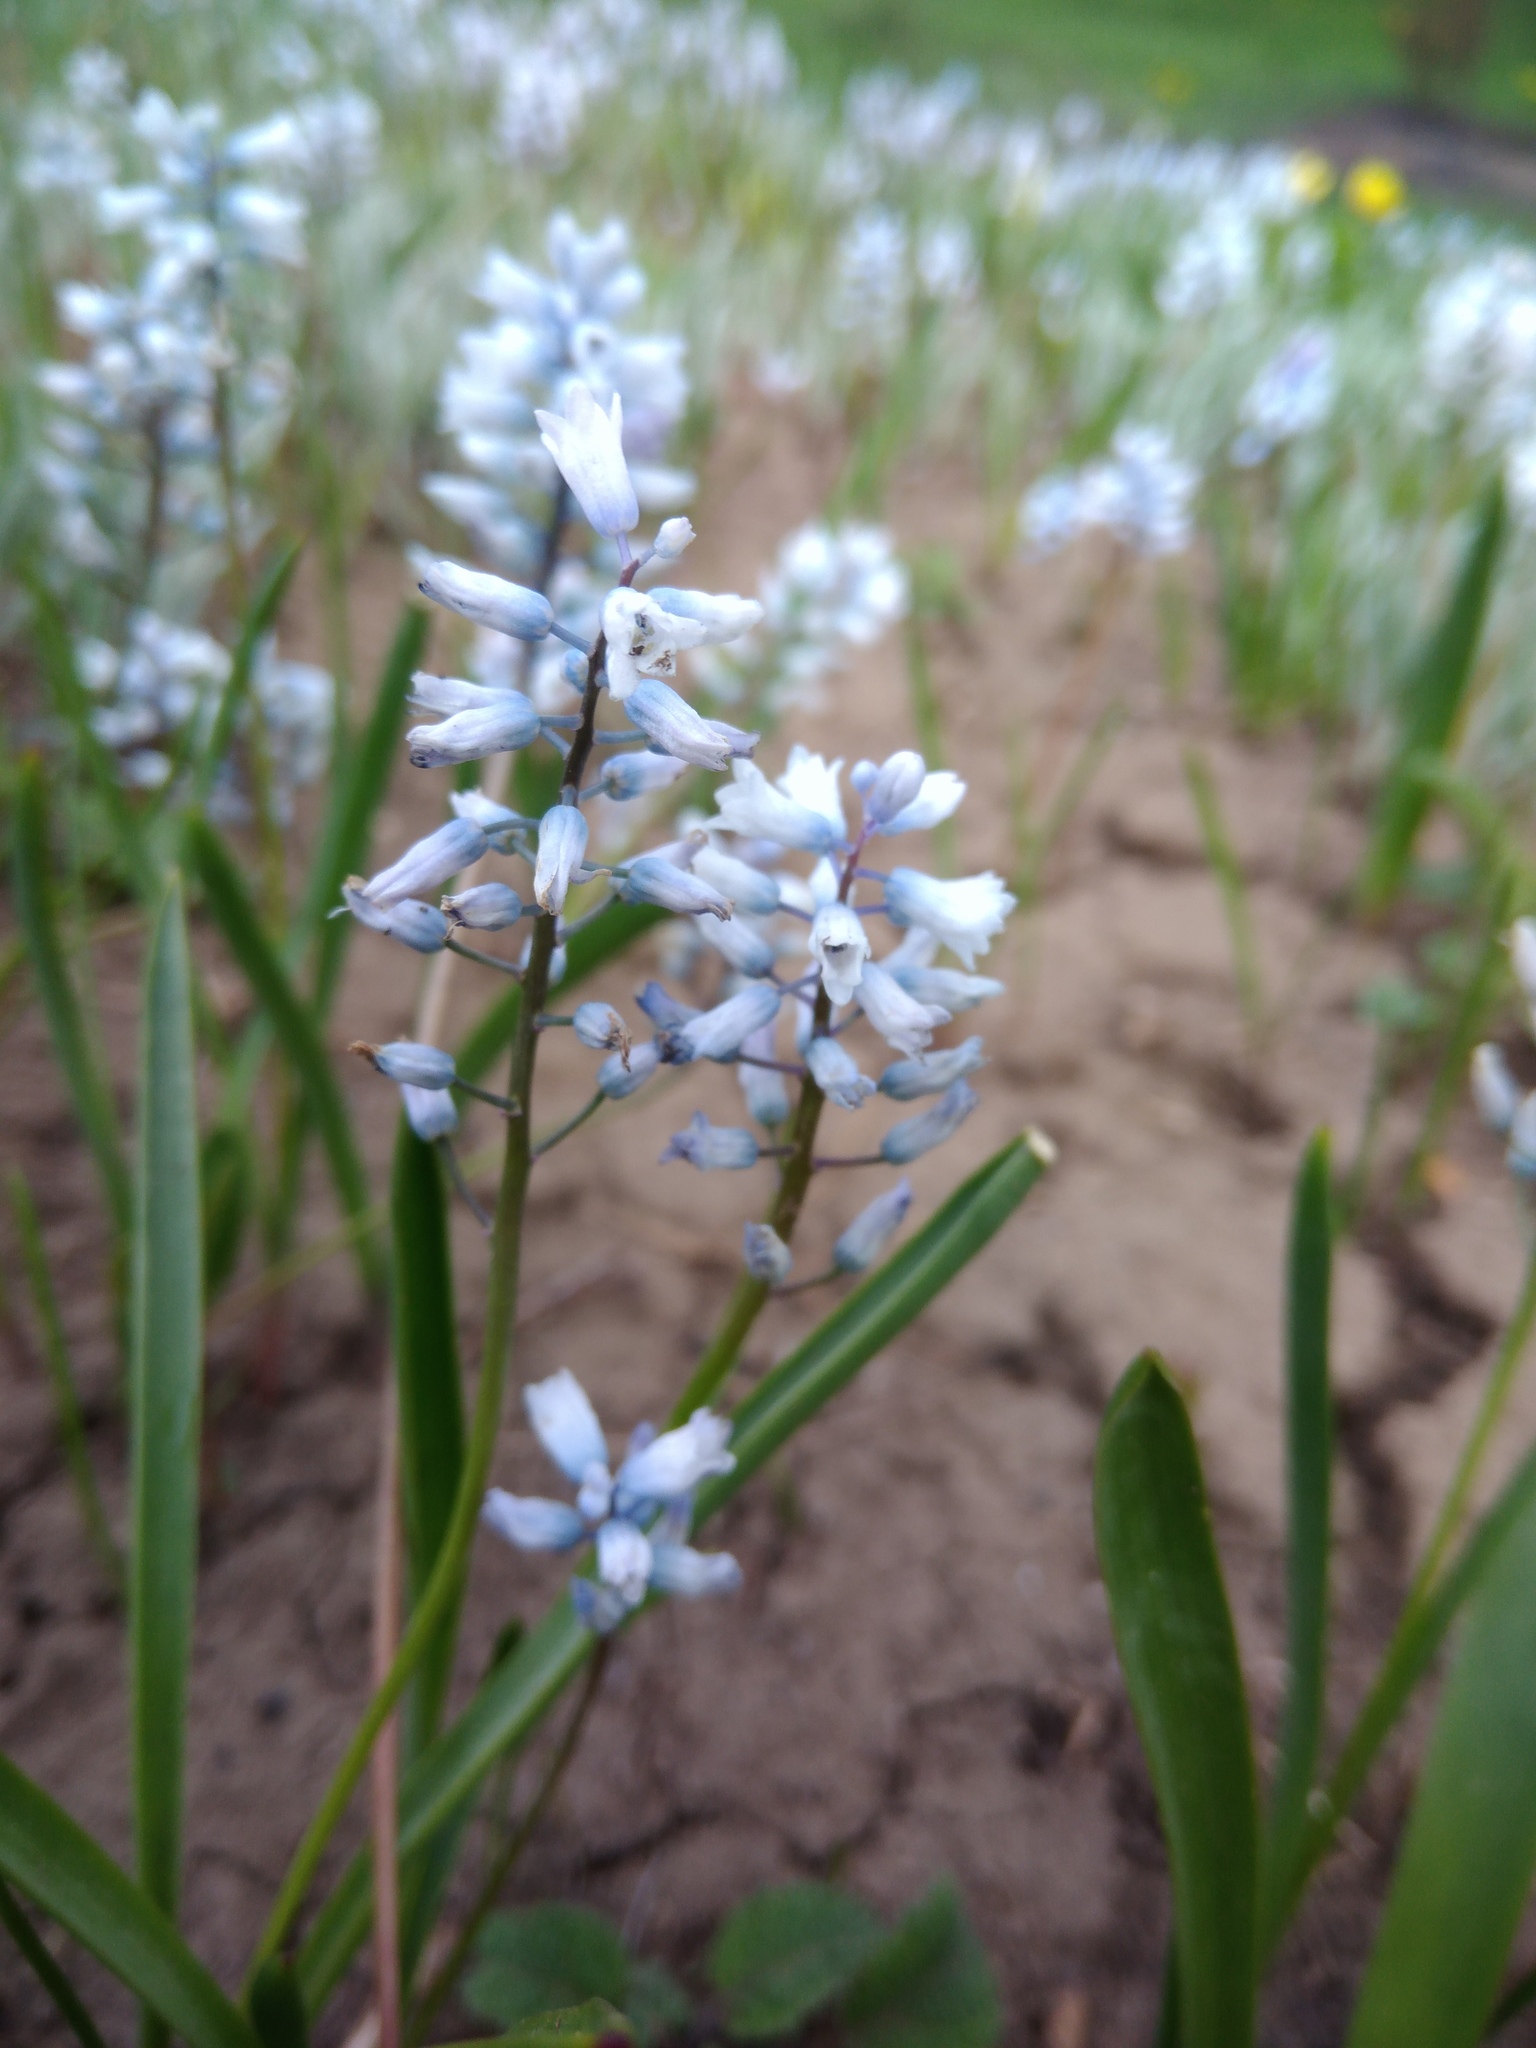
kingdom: Plantae
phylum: Tracheophyta
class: Liliopsida
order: Asparagales
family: Asparagaceae
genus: Hyacinthella
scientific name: Hyacinthella leucophaea
